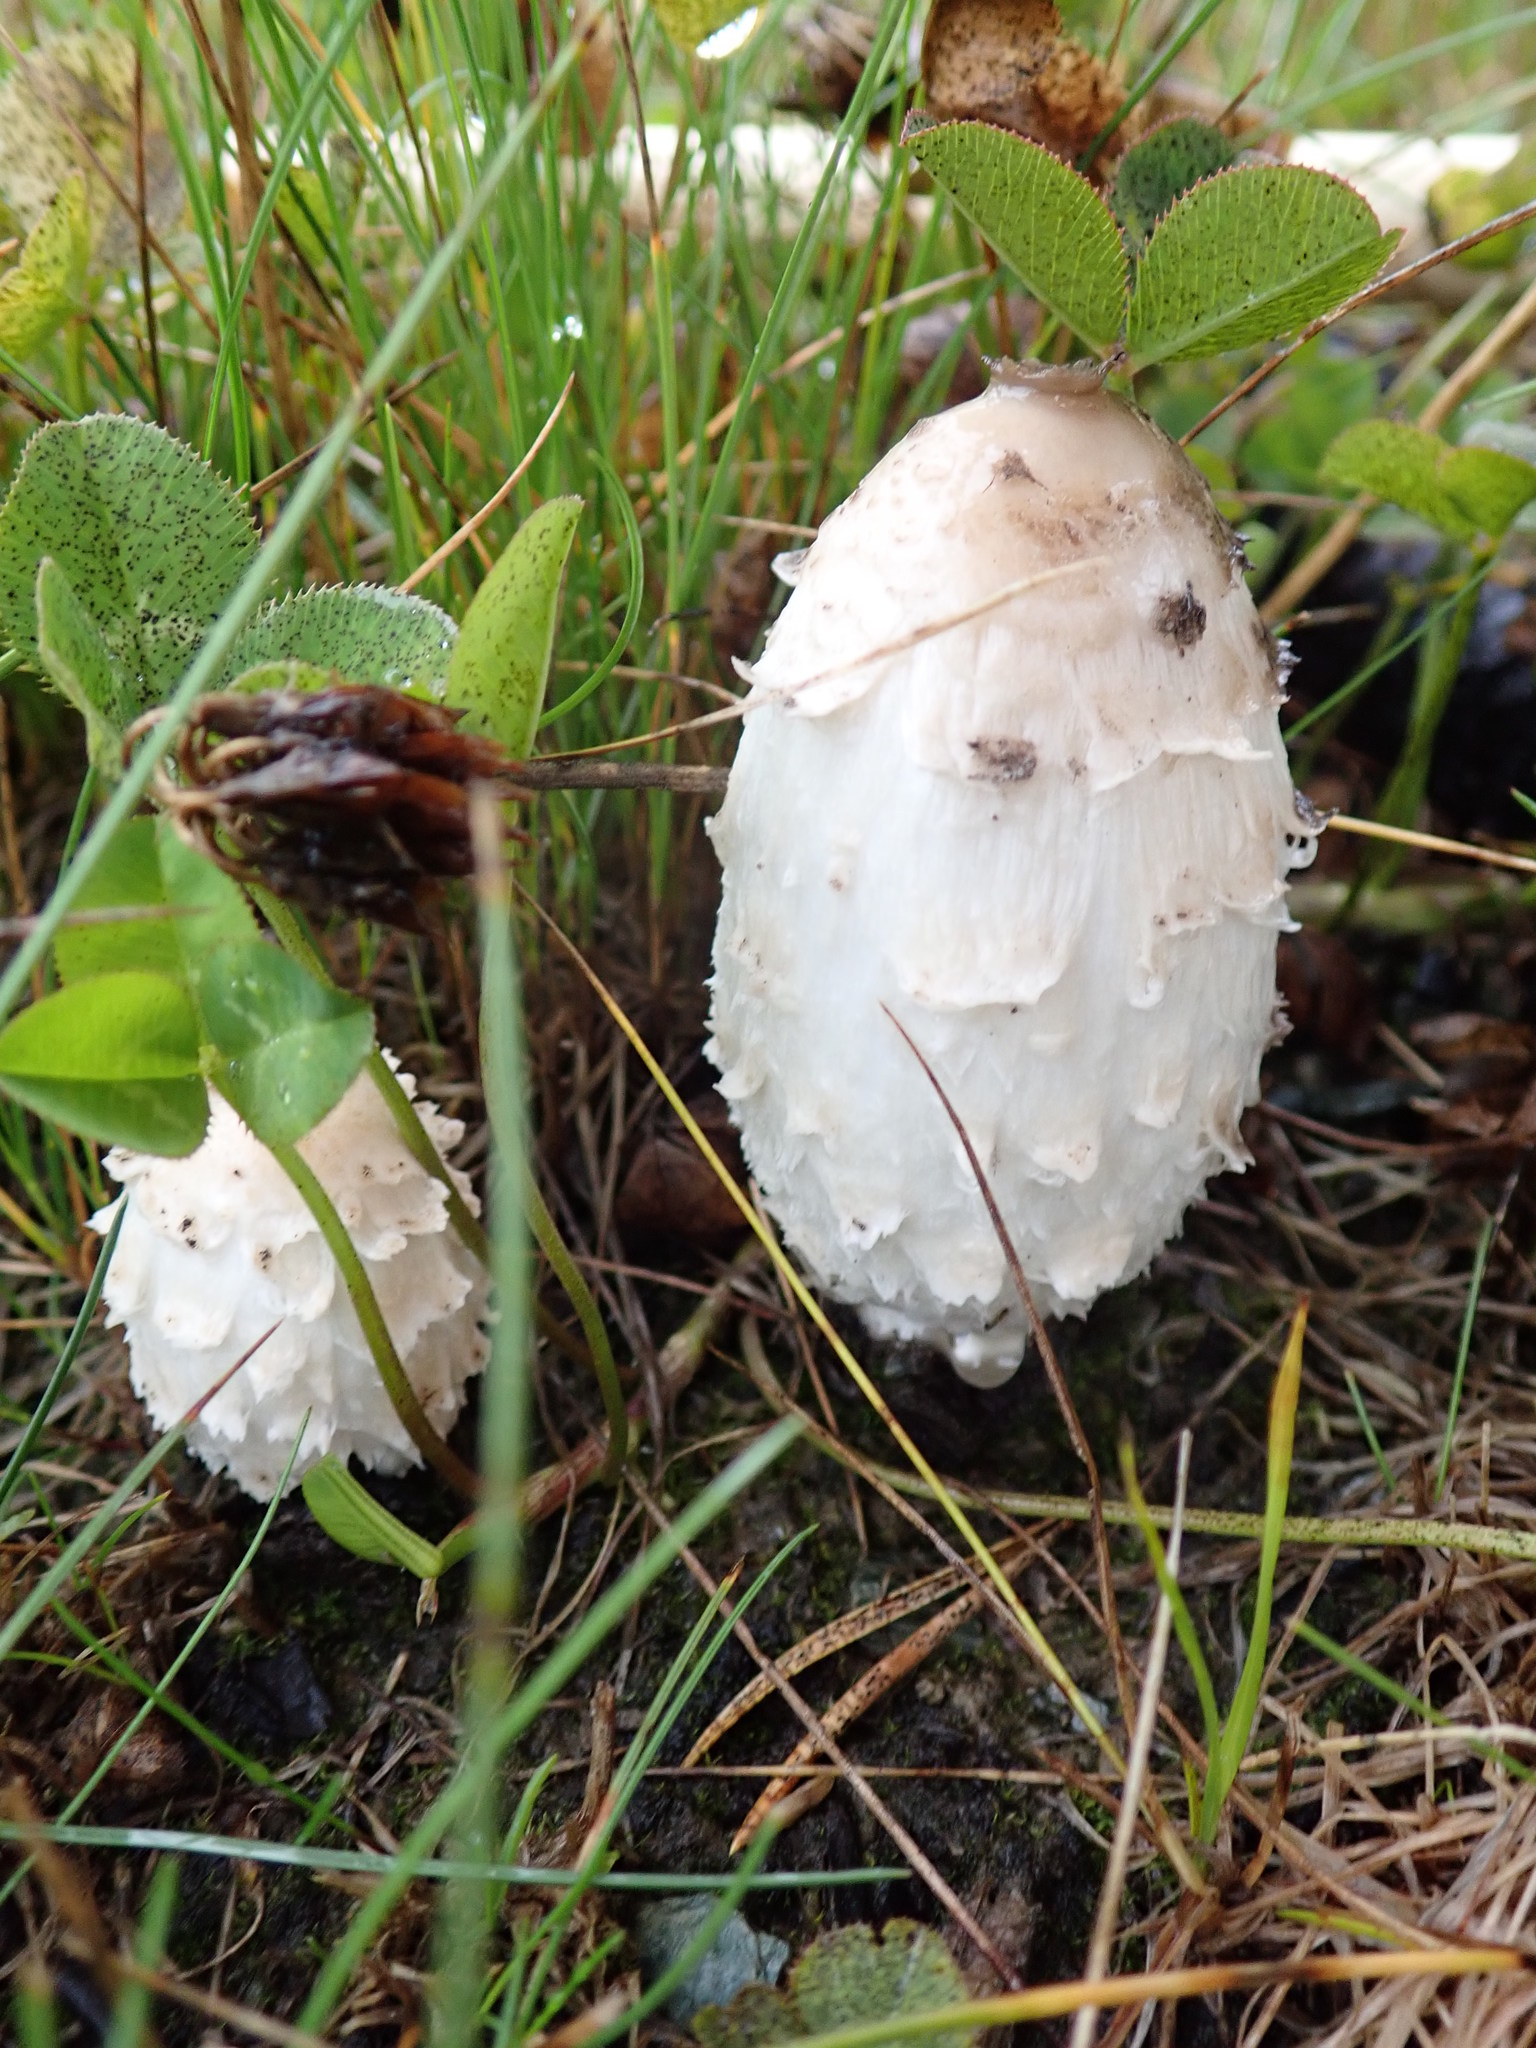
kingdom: Fungi
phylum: Basidiomycota
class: Agaricomycetes
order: Agaricales
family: Agaricaceae
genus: Coprinus
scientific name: Coprinus comatus
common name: Lawyer's wig
